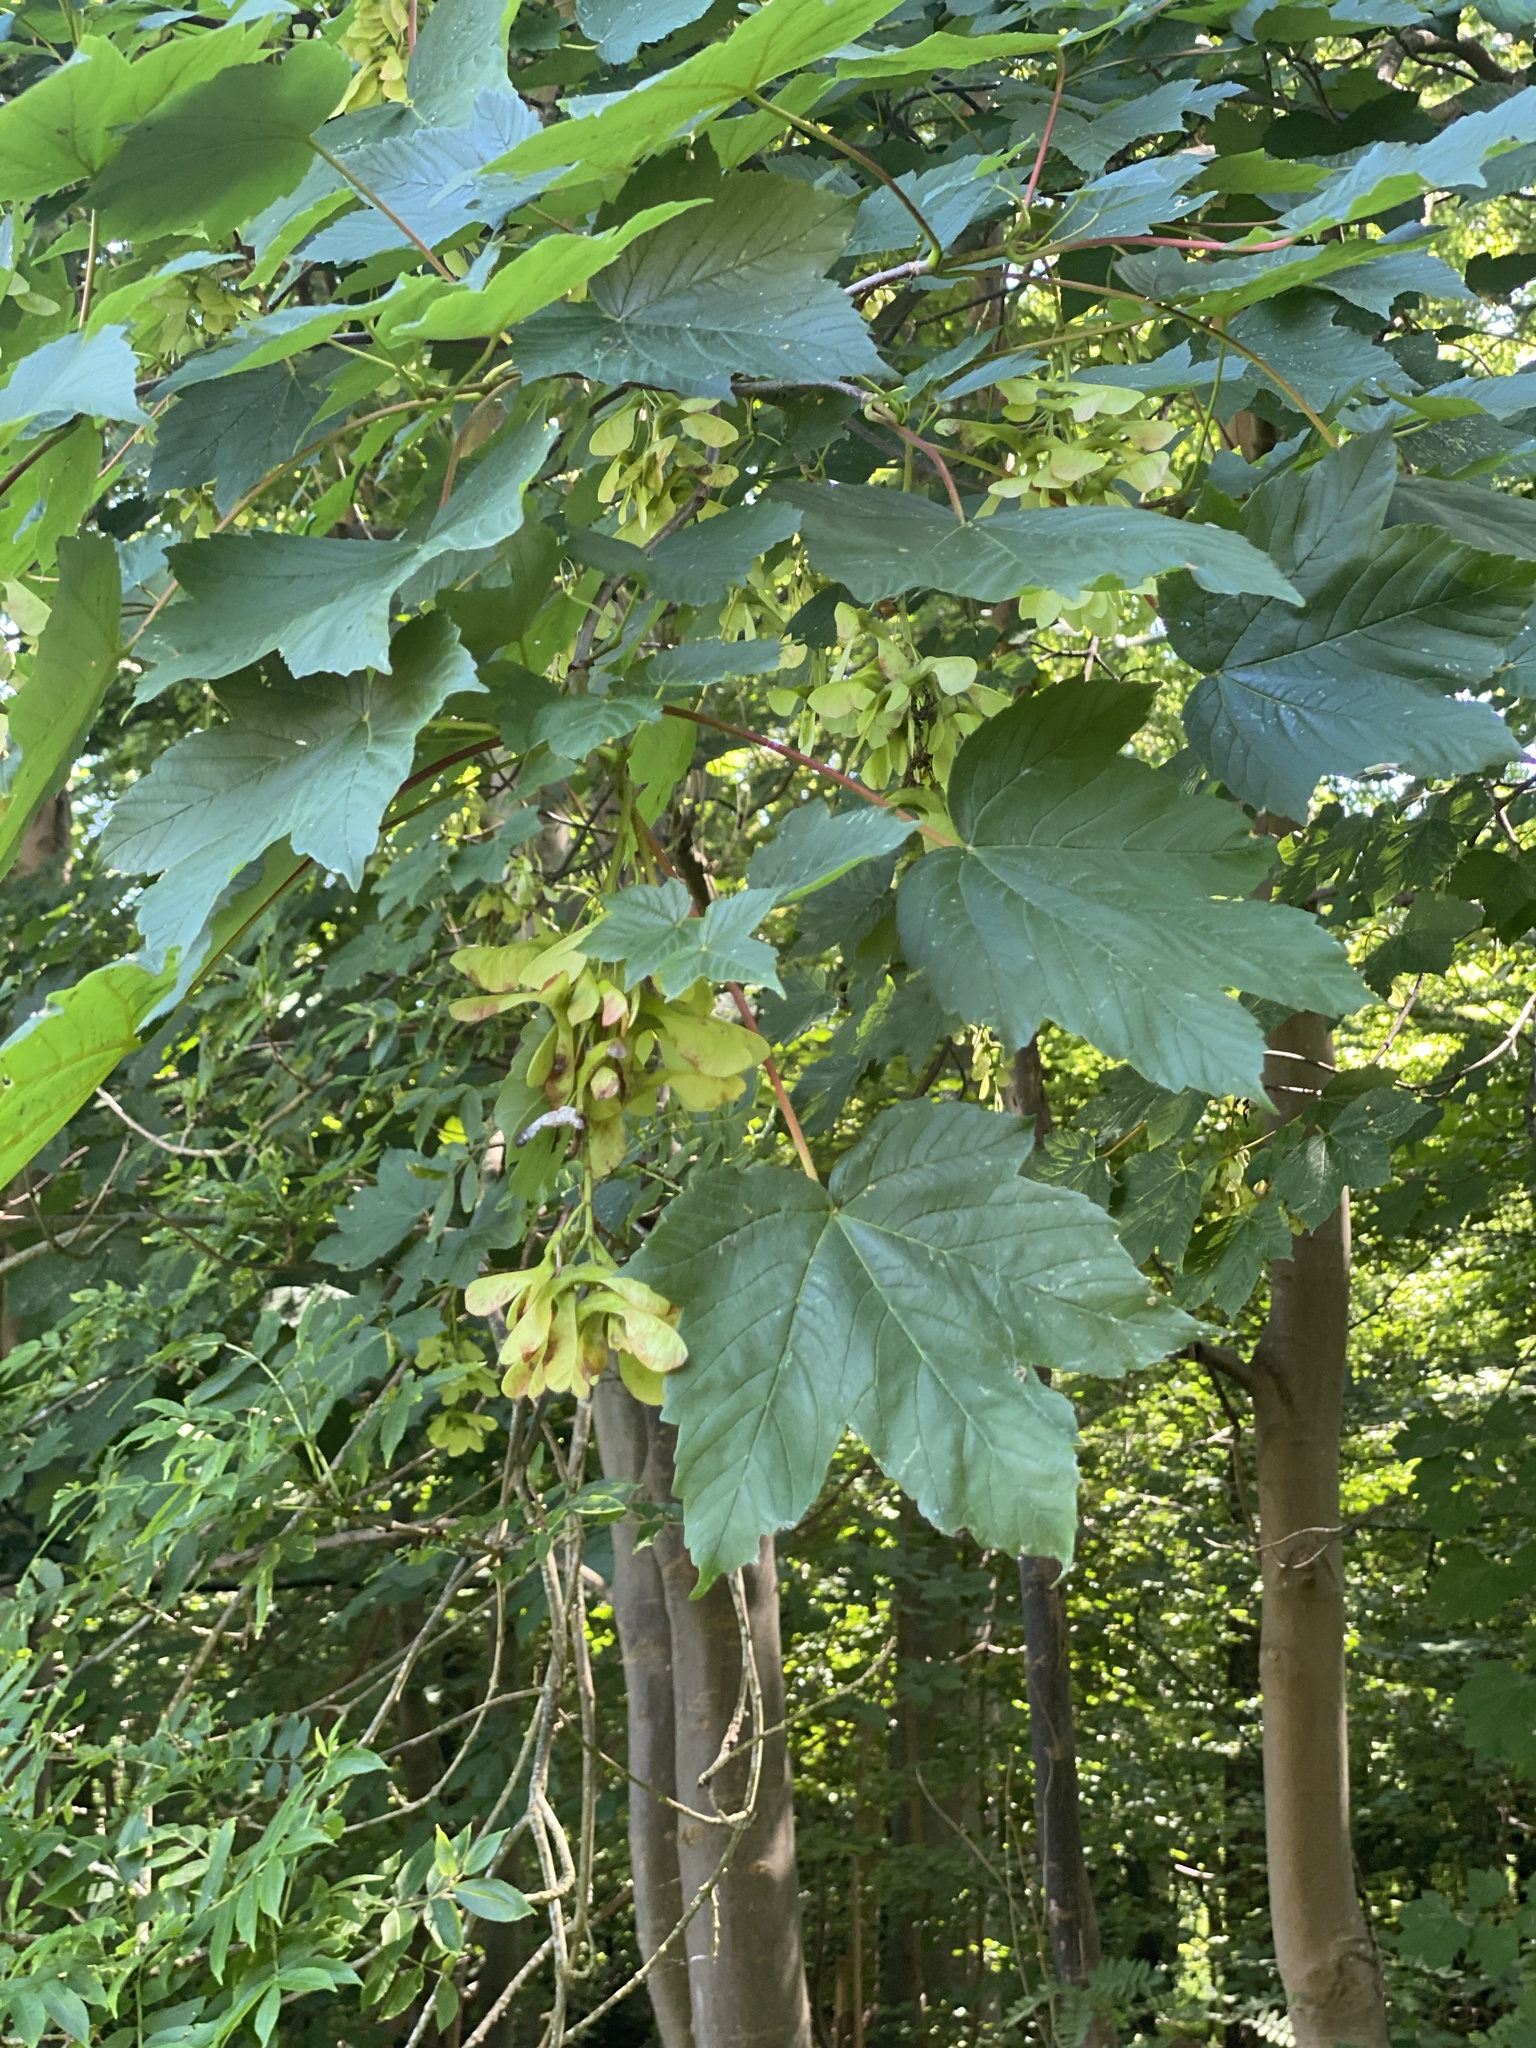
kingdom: Plantae
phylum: Tracheophyta
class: Magnoliopsida
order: Sapindales
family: Sapindaceae
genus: Acer
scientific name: Acer pseudoplatanus
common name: Sycamore
